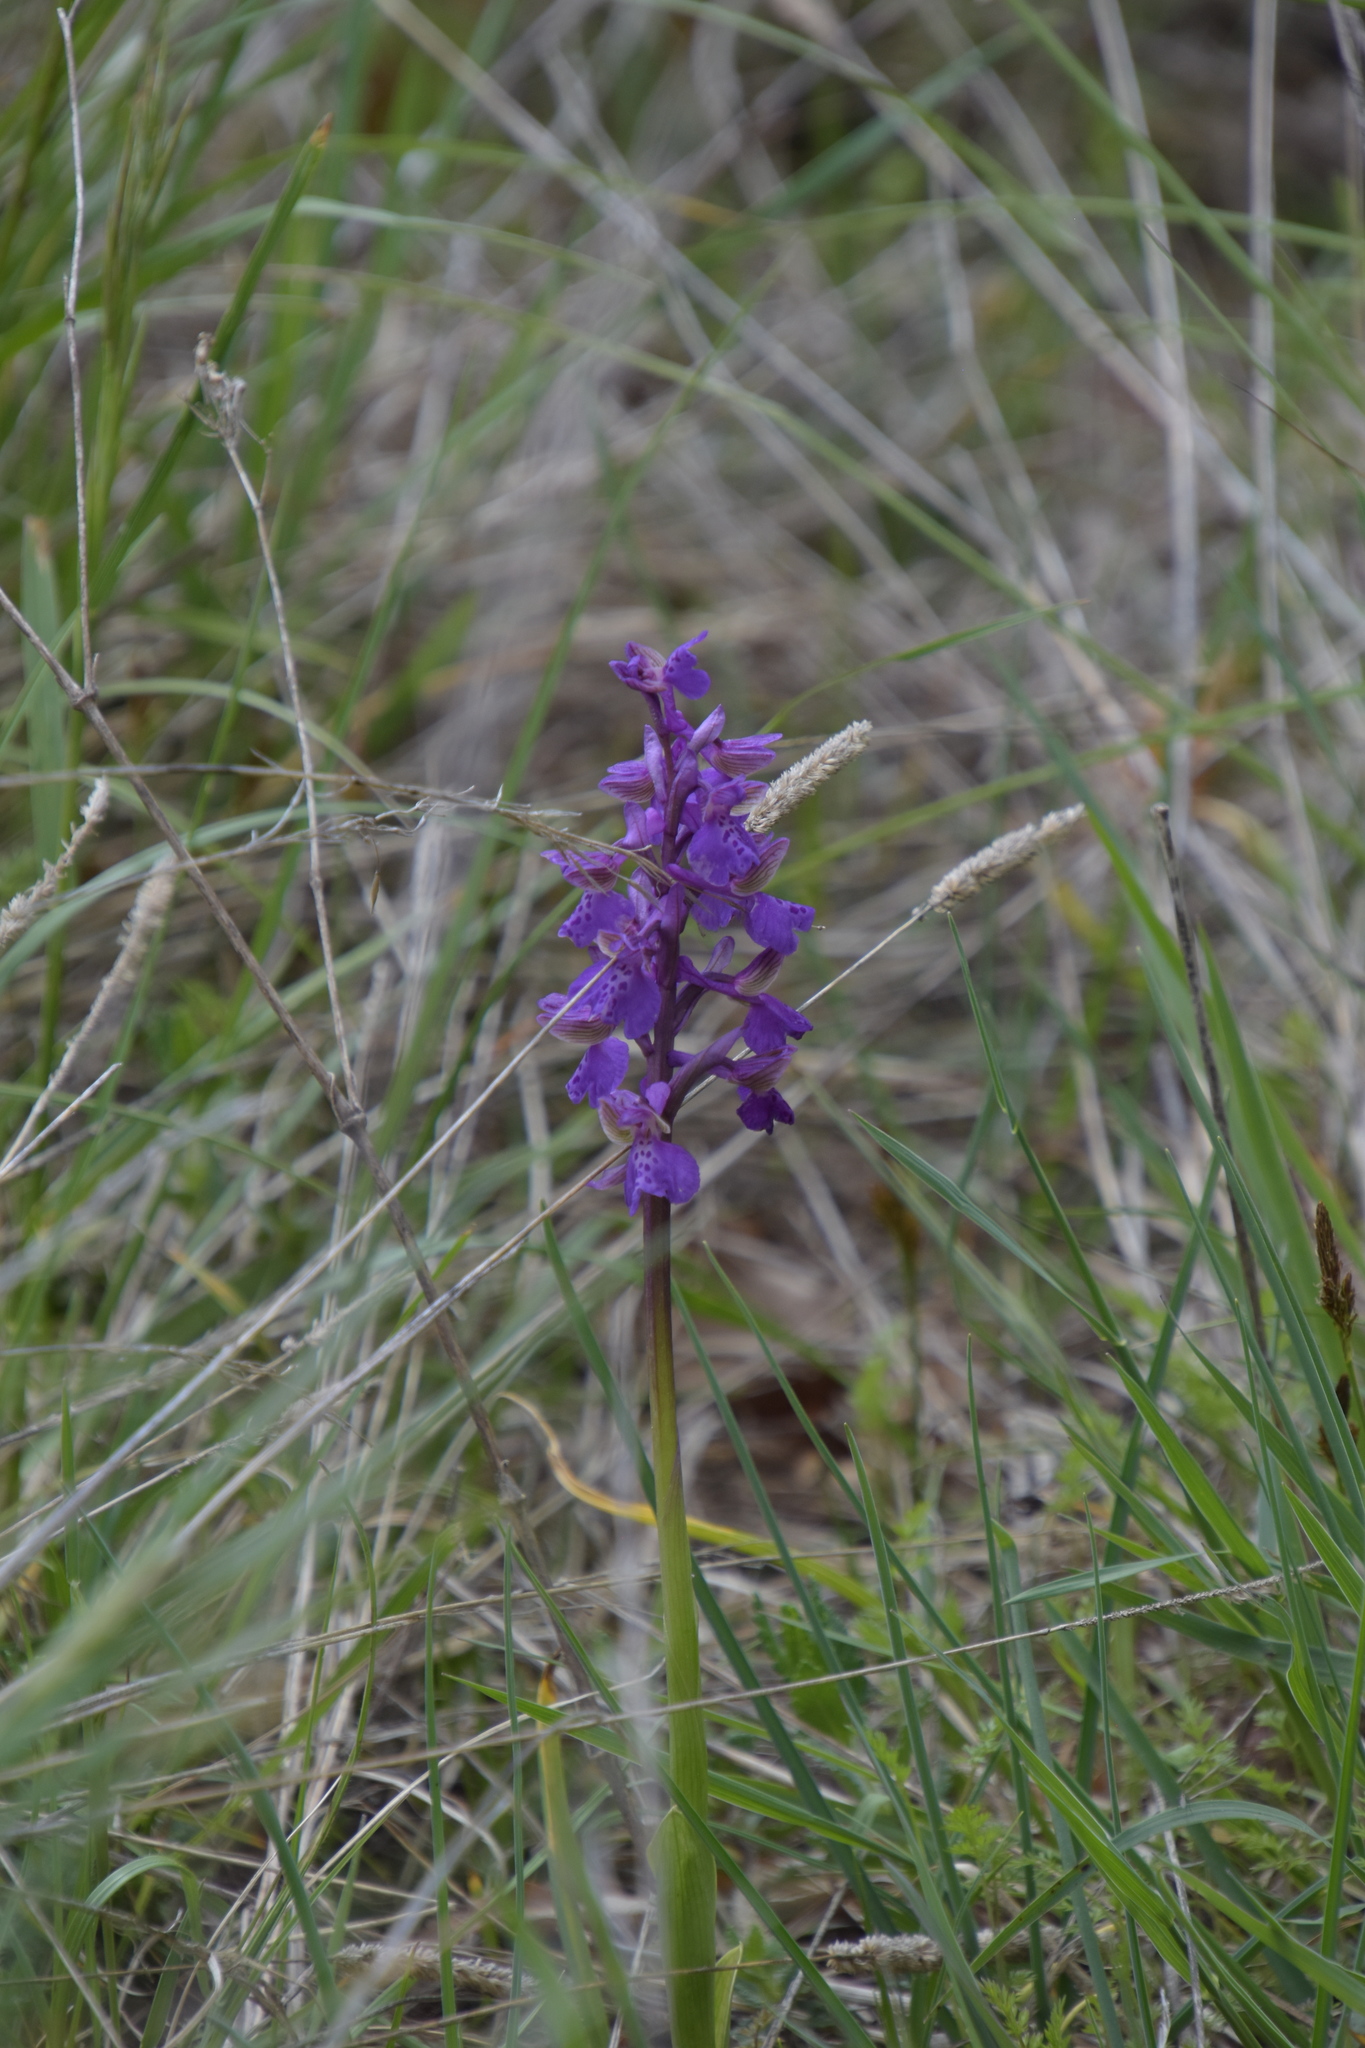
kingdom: Plantae
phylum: Tracheophyta
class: Liliopsida
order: Asparagales
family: Orchidaceae
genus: Anacamptis
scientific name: Anacamptis morio
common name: Green-winged orchid
